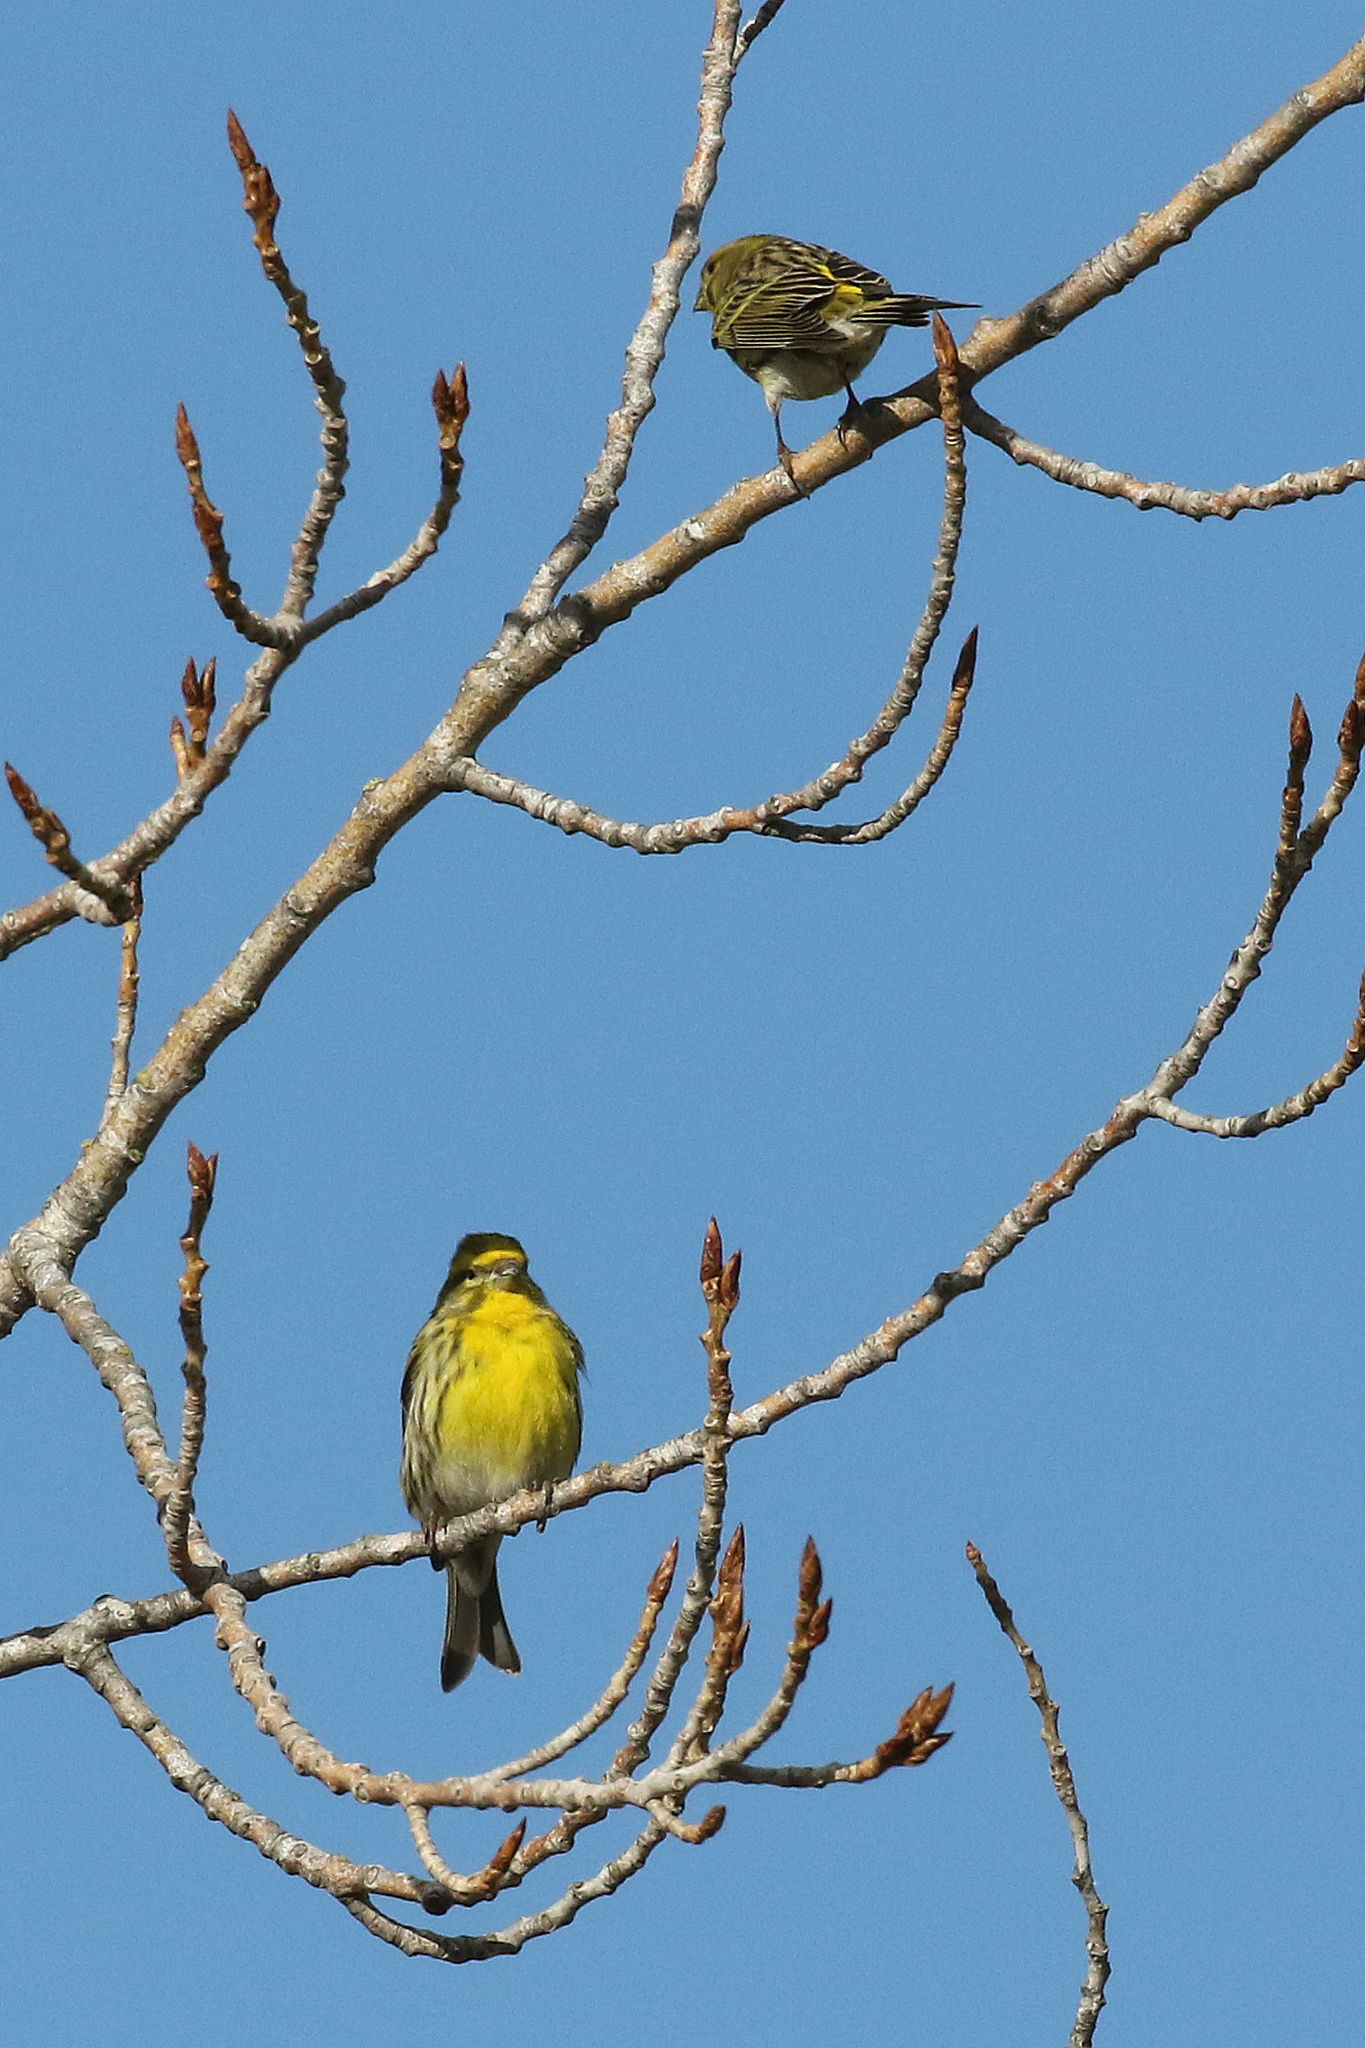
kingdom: Animalia
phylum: Chordata
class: Aves
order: Passeriformes
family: Fringillidae
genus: Serinus
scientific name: Serinus serinus
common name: European serin
